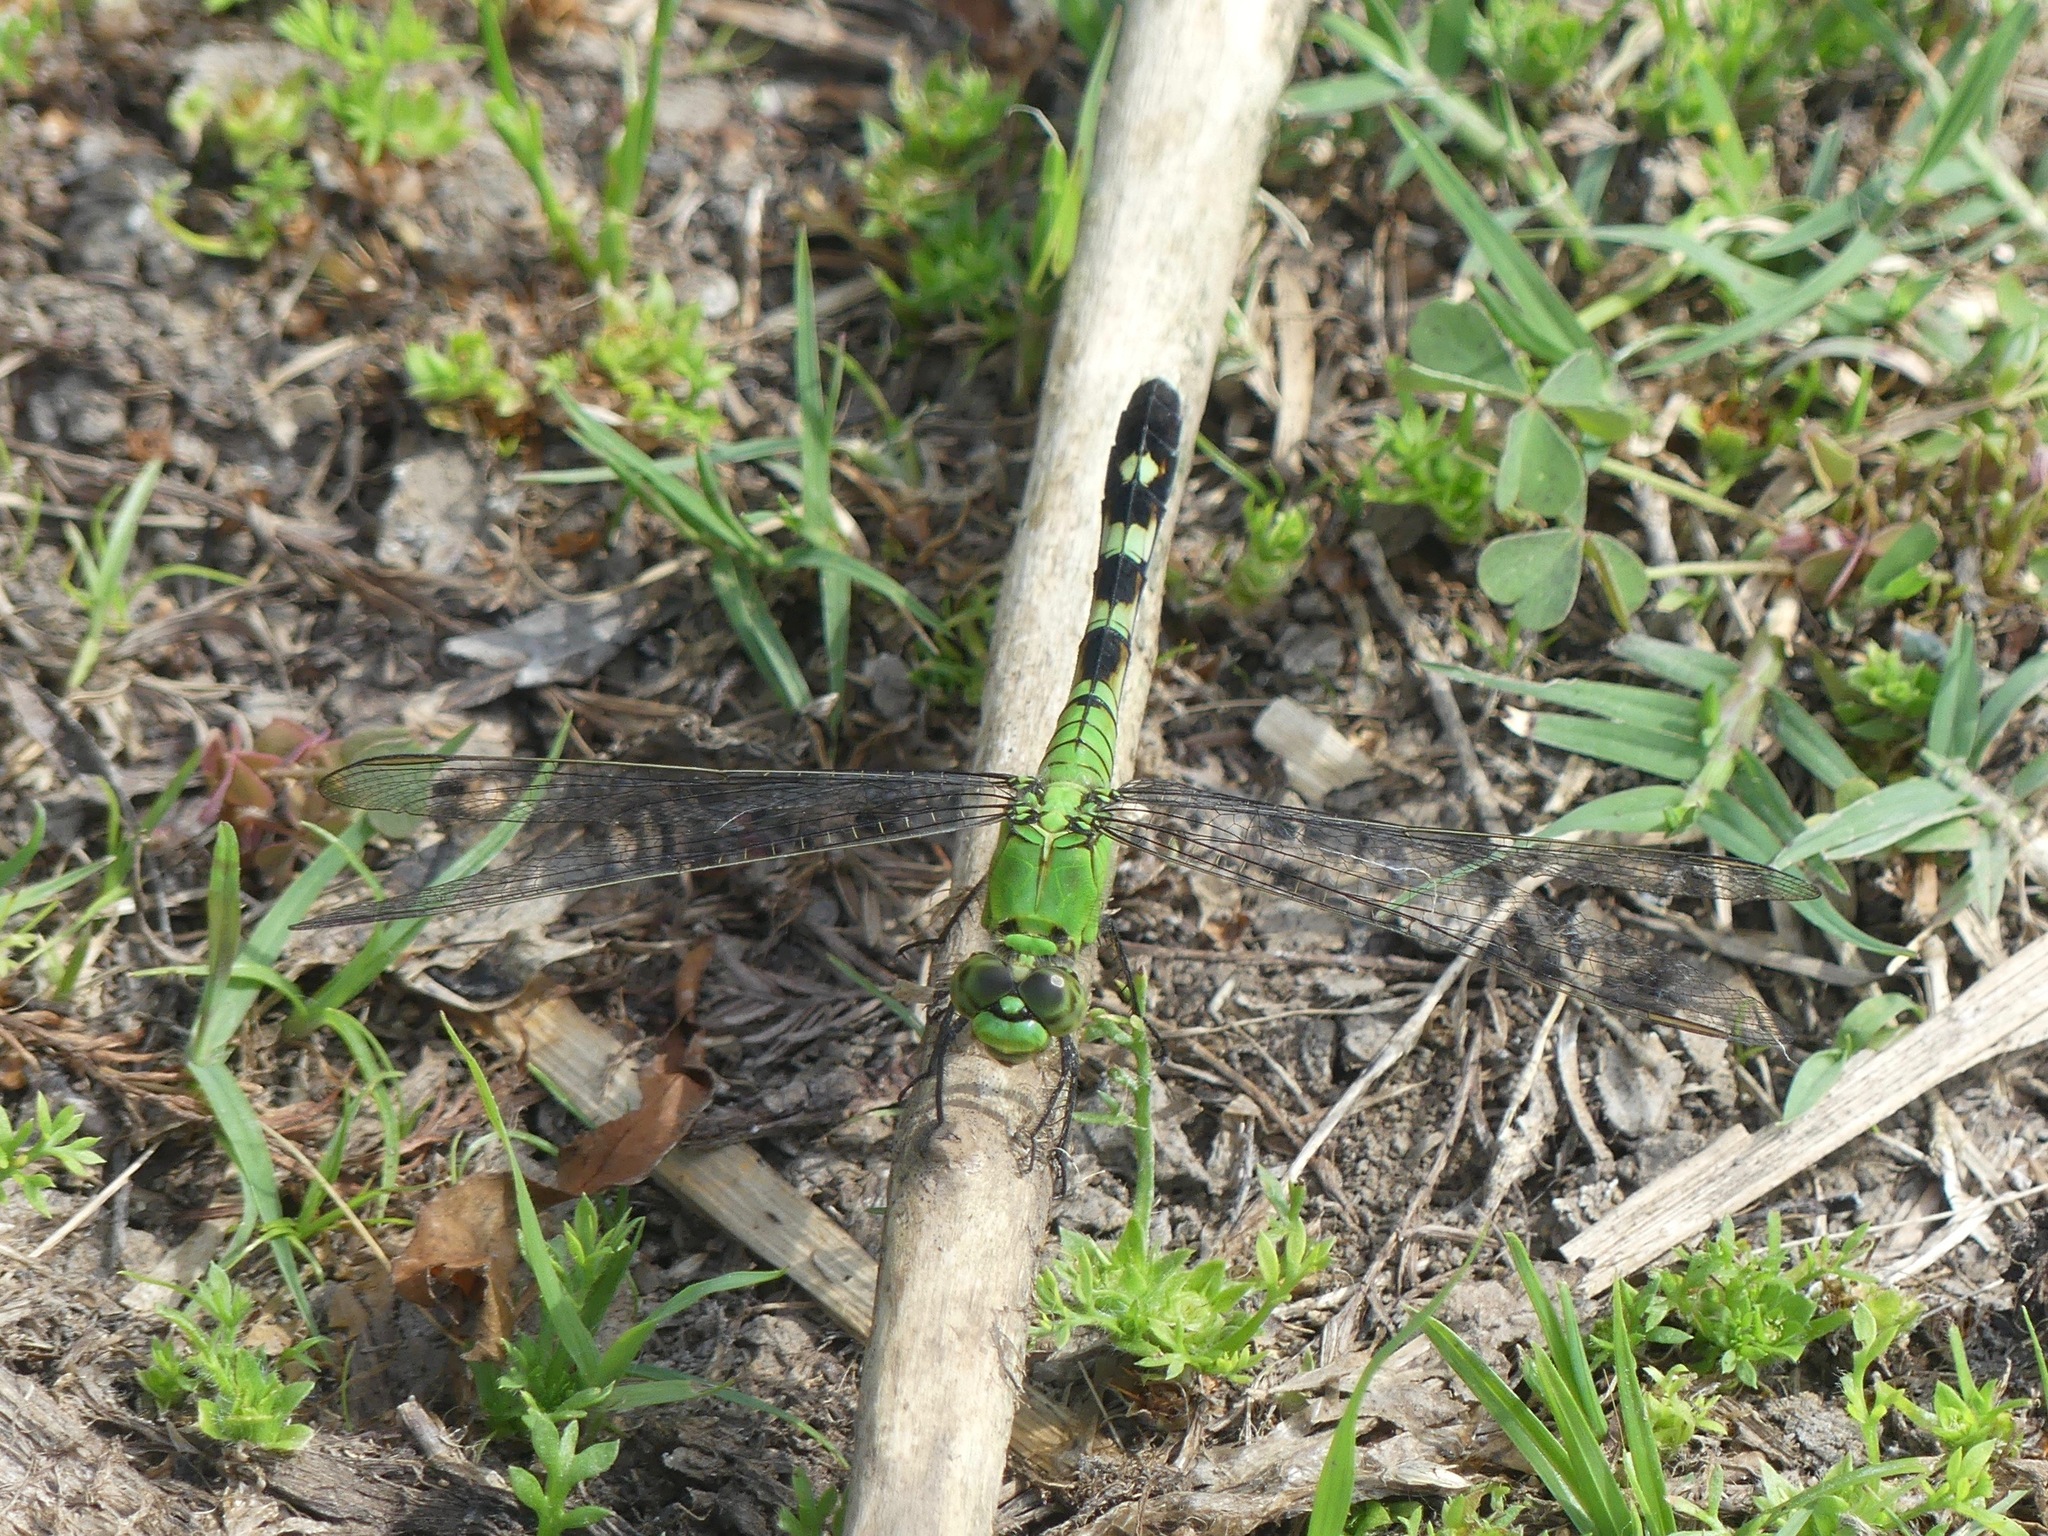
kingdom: Animalia
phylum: Arthropoda
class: Insecta
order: Odonata
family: Libellulidae
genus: Erythemis
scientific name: Erythemis simplicicollis
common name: Eastern pondhawk
